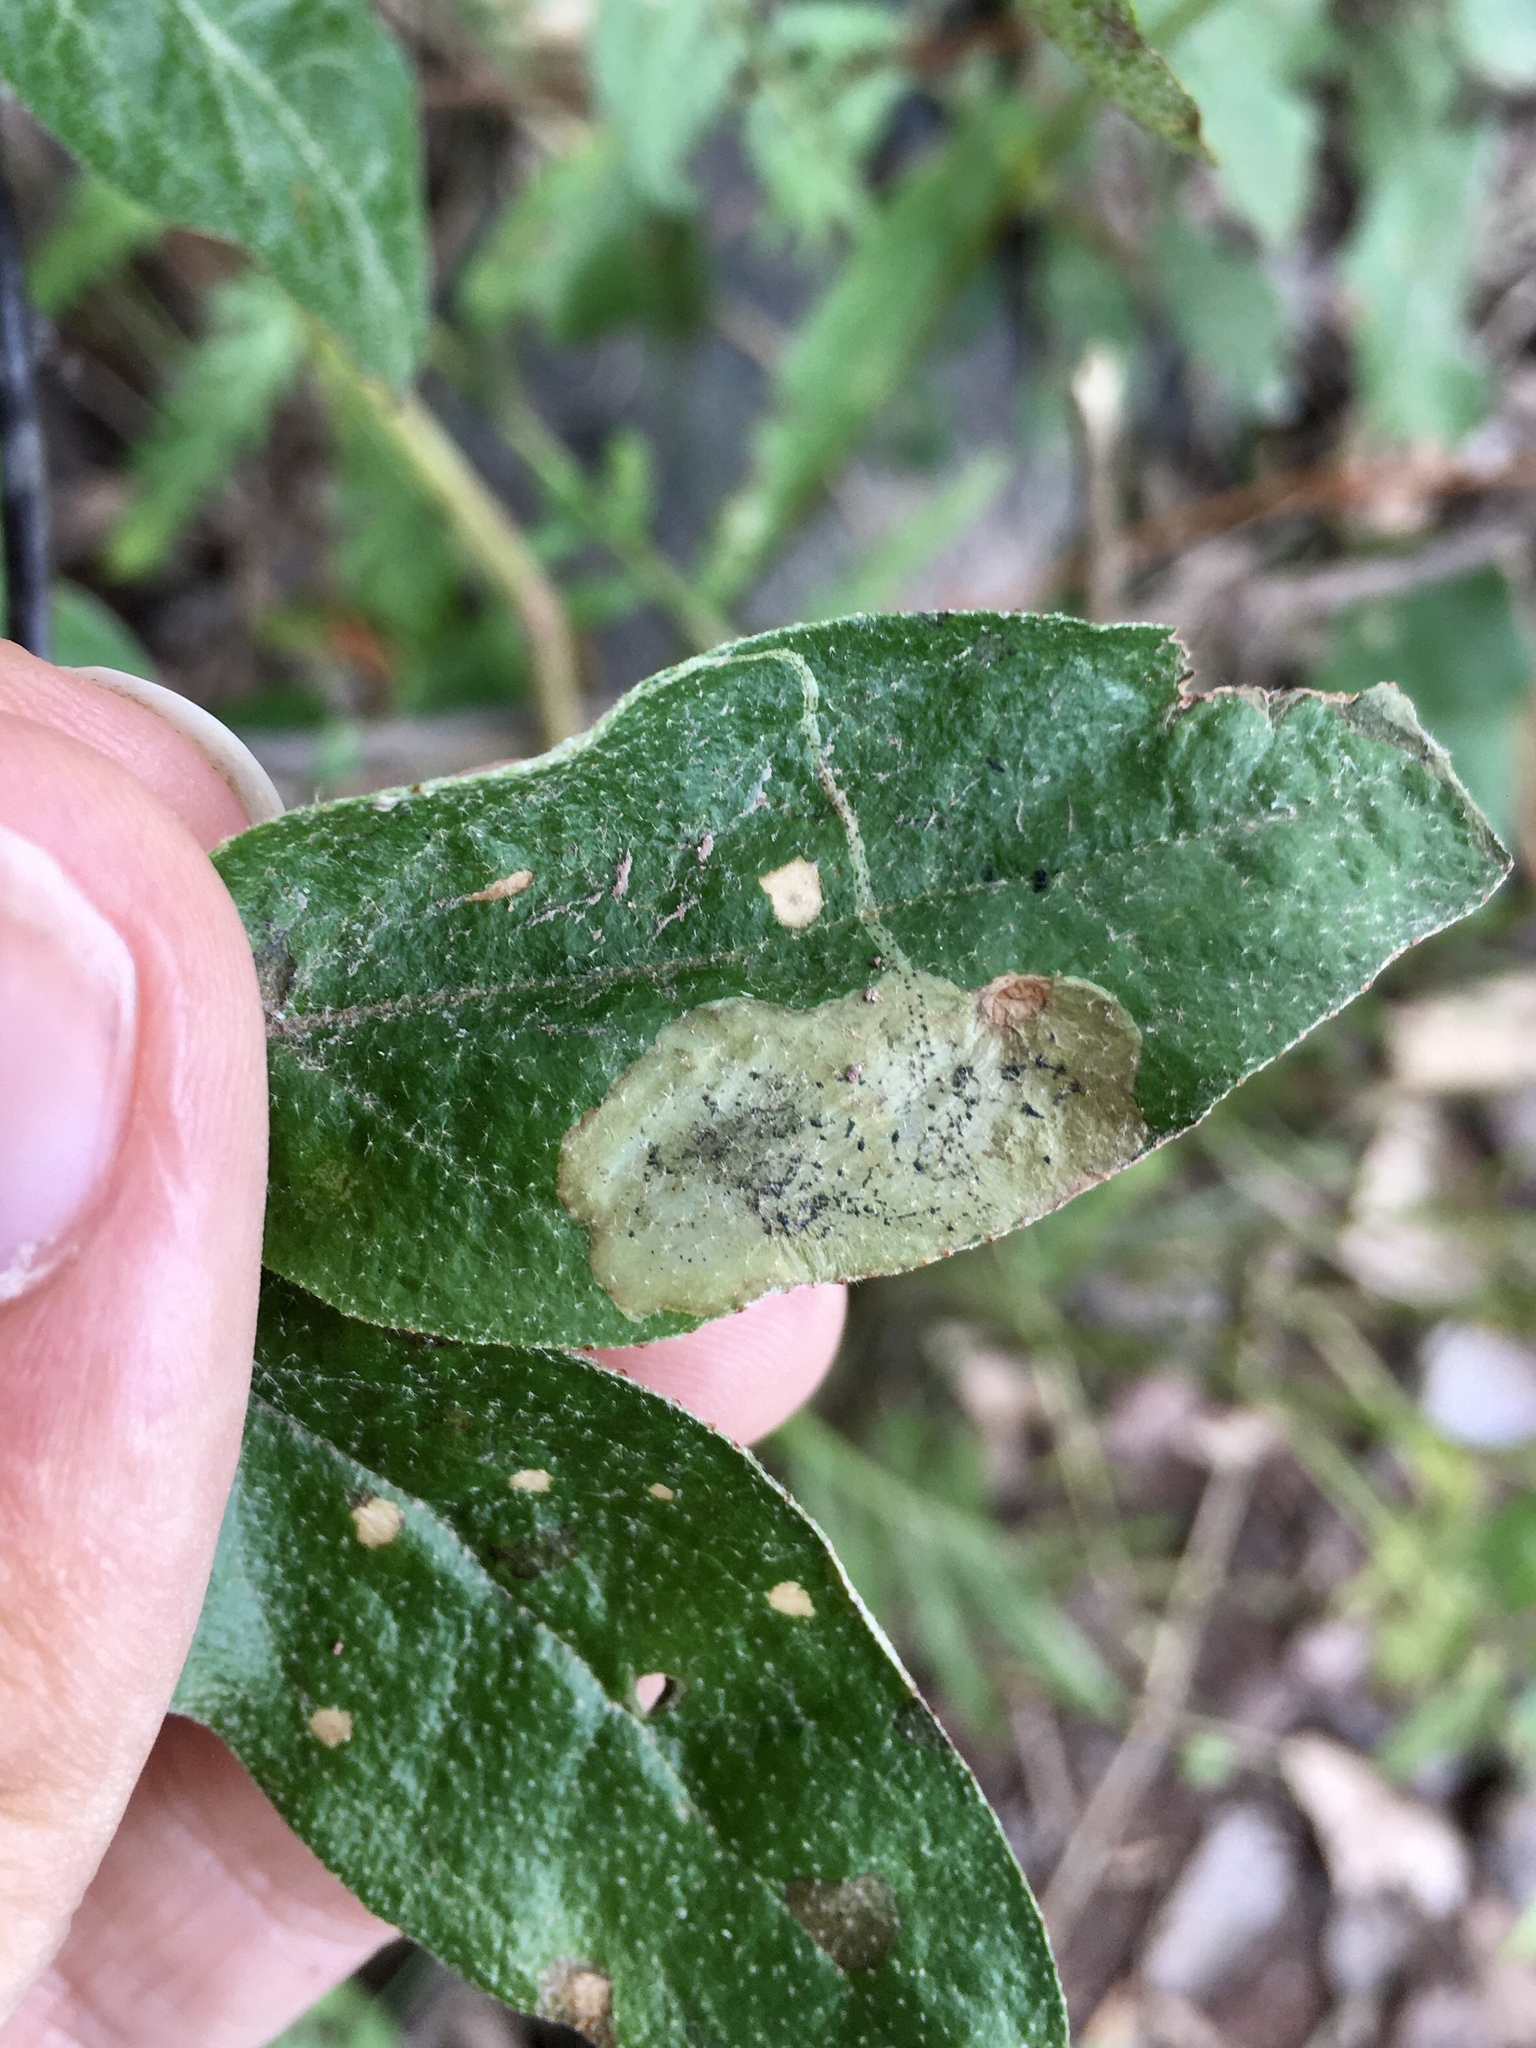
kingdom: Animalia
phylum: Arthropoda
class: Insecta
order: Diptera
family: Agromyzidae
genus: Amauromyza
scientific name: Amauromyza shepherdiae
